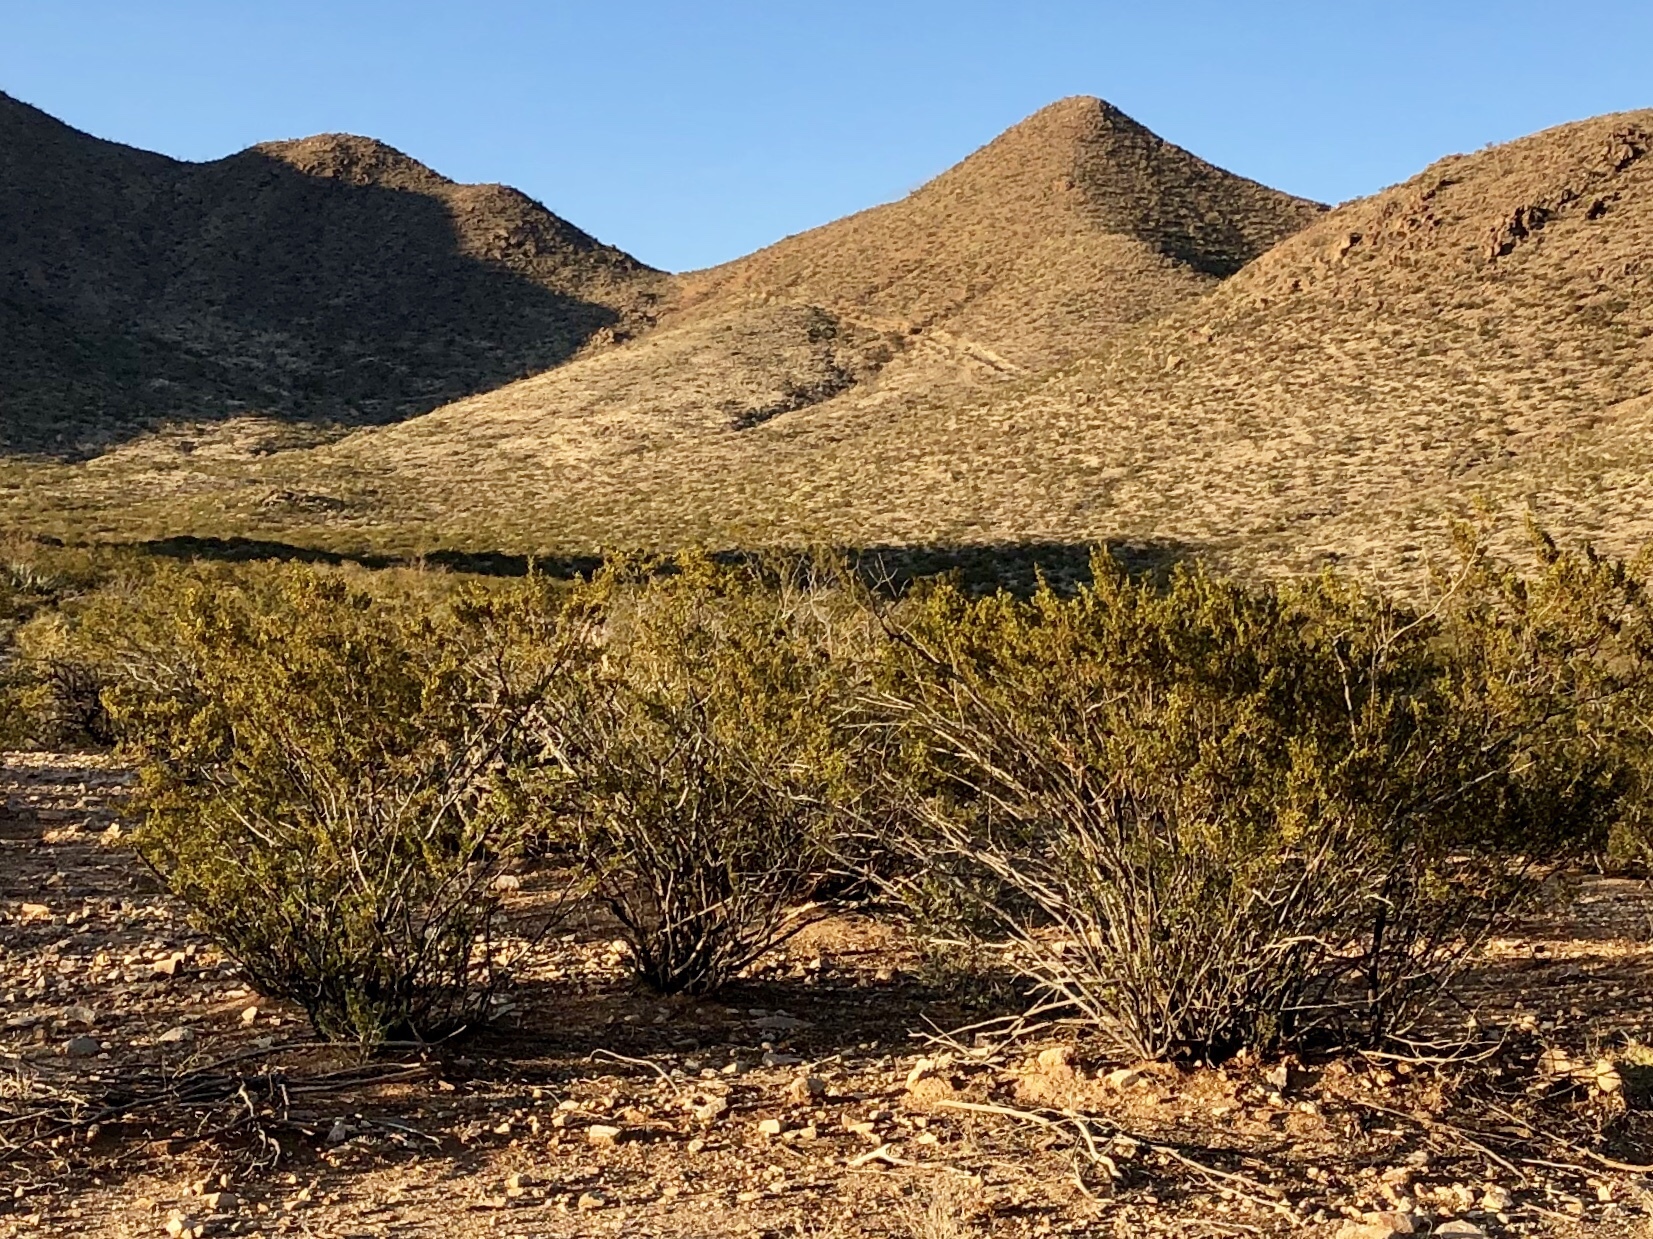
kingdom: Plantae
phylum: Tracheophyta
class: Magnoliopsida
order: Zygophyllales
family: Zygophyllaceae
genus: Larrea
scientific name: Larrea tridentata
